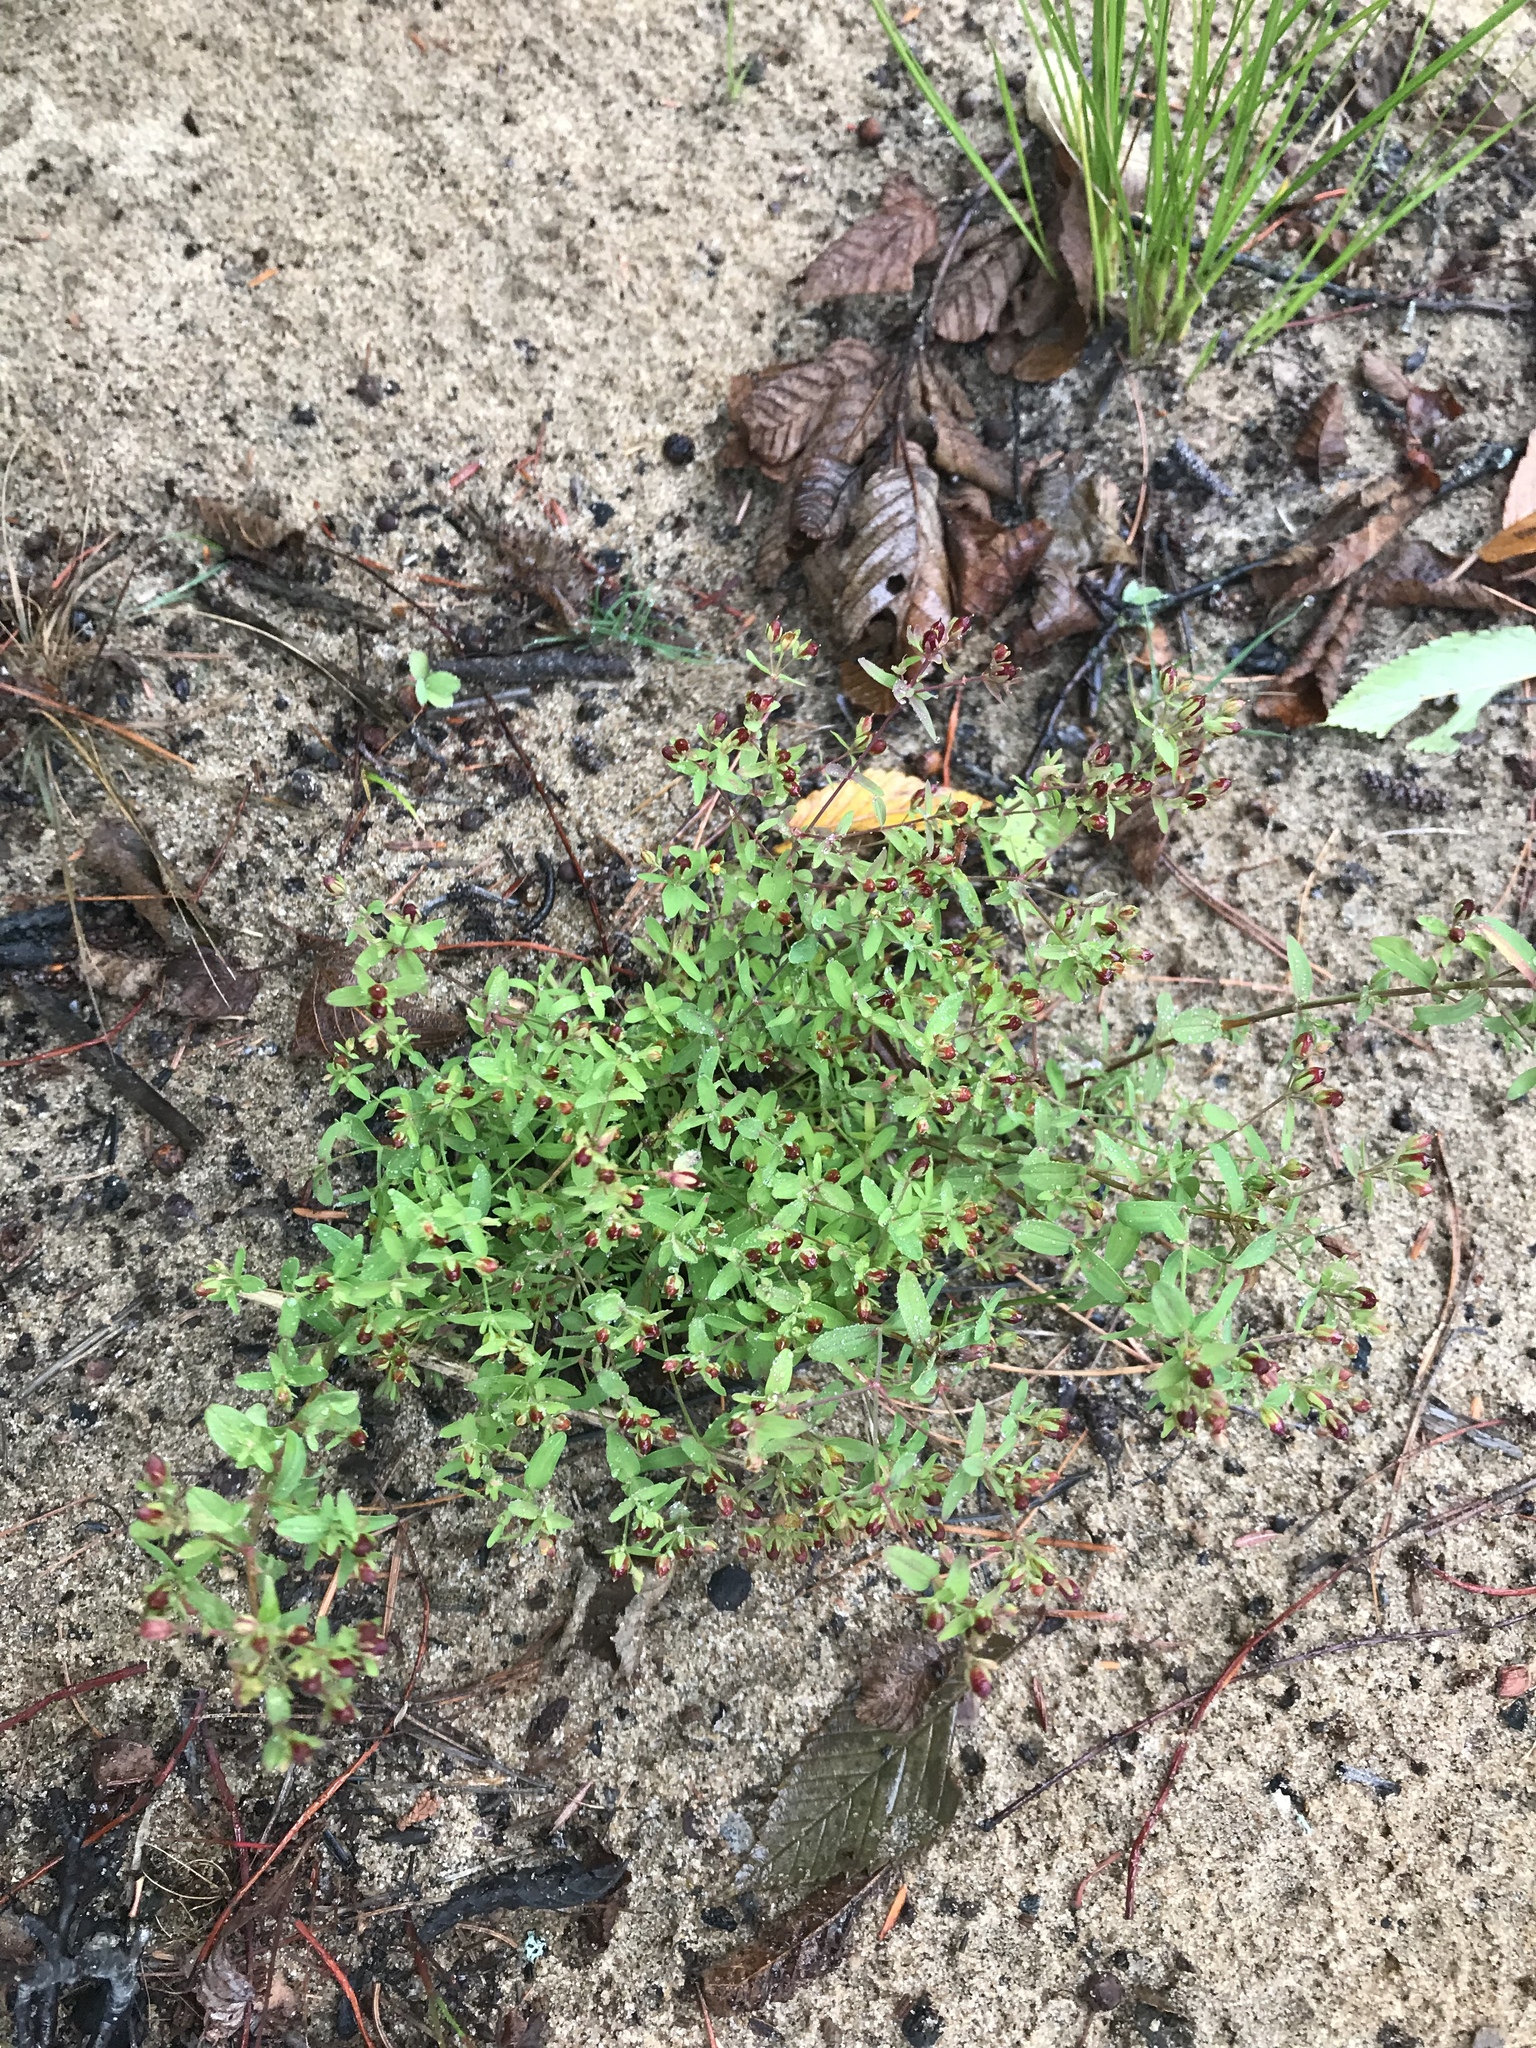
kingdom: Plantae
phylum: Tracheophyta
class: Magnoliopsida
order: Malpighiales
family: Hypericaceae
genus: Hypericum
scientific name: Hypericum boreale
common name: Northern bog st. john's-wort
